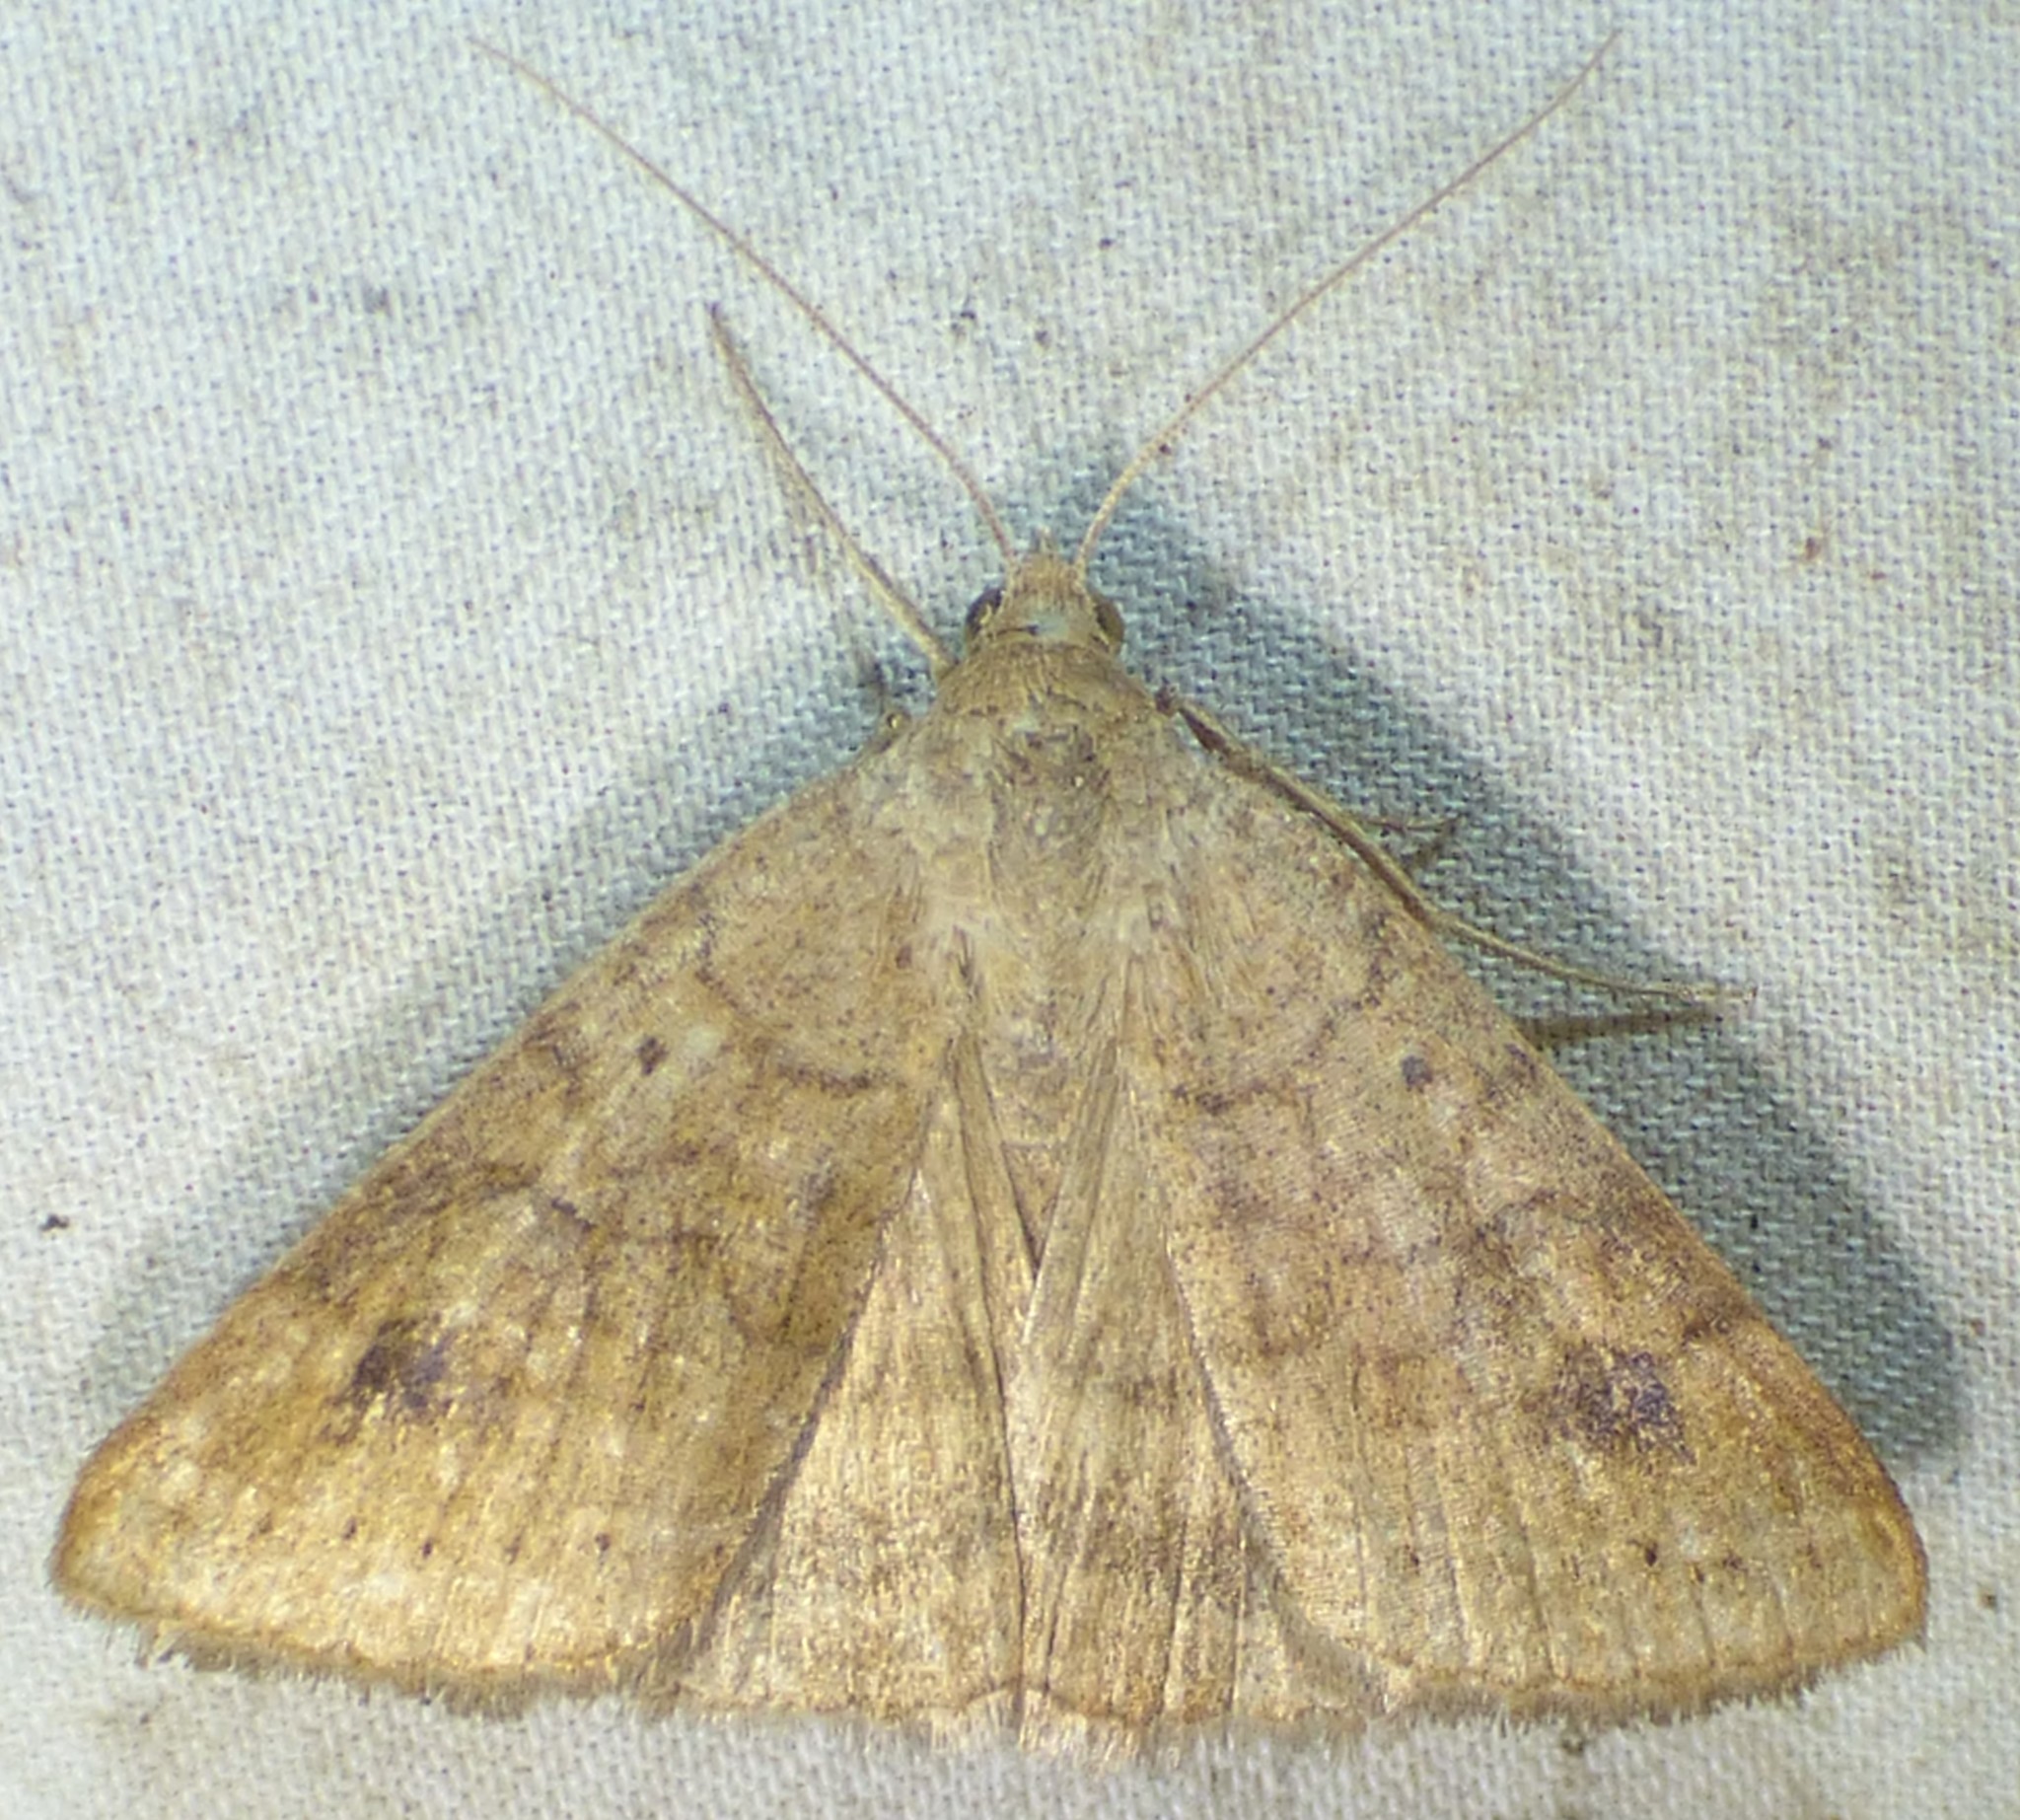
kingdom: Animalia
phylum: Arthropoda
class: Insecta
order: Lepidoptera
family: Erebidae
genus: Caenurgia
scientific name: Caenurgia chloropha
